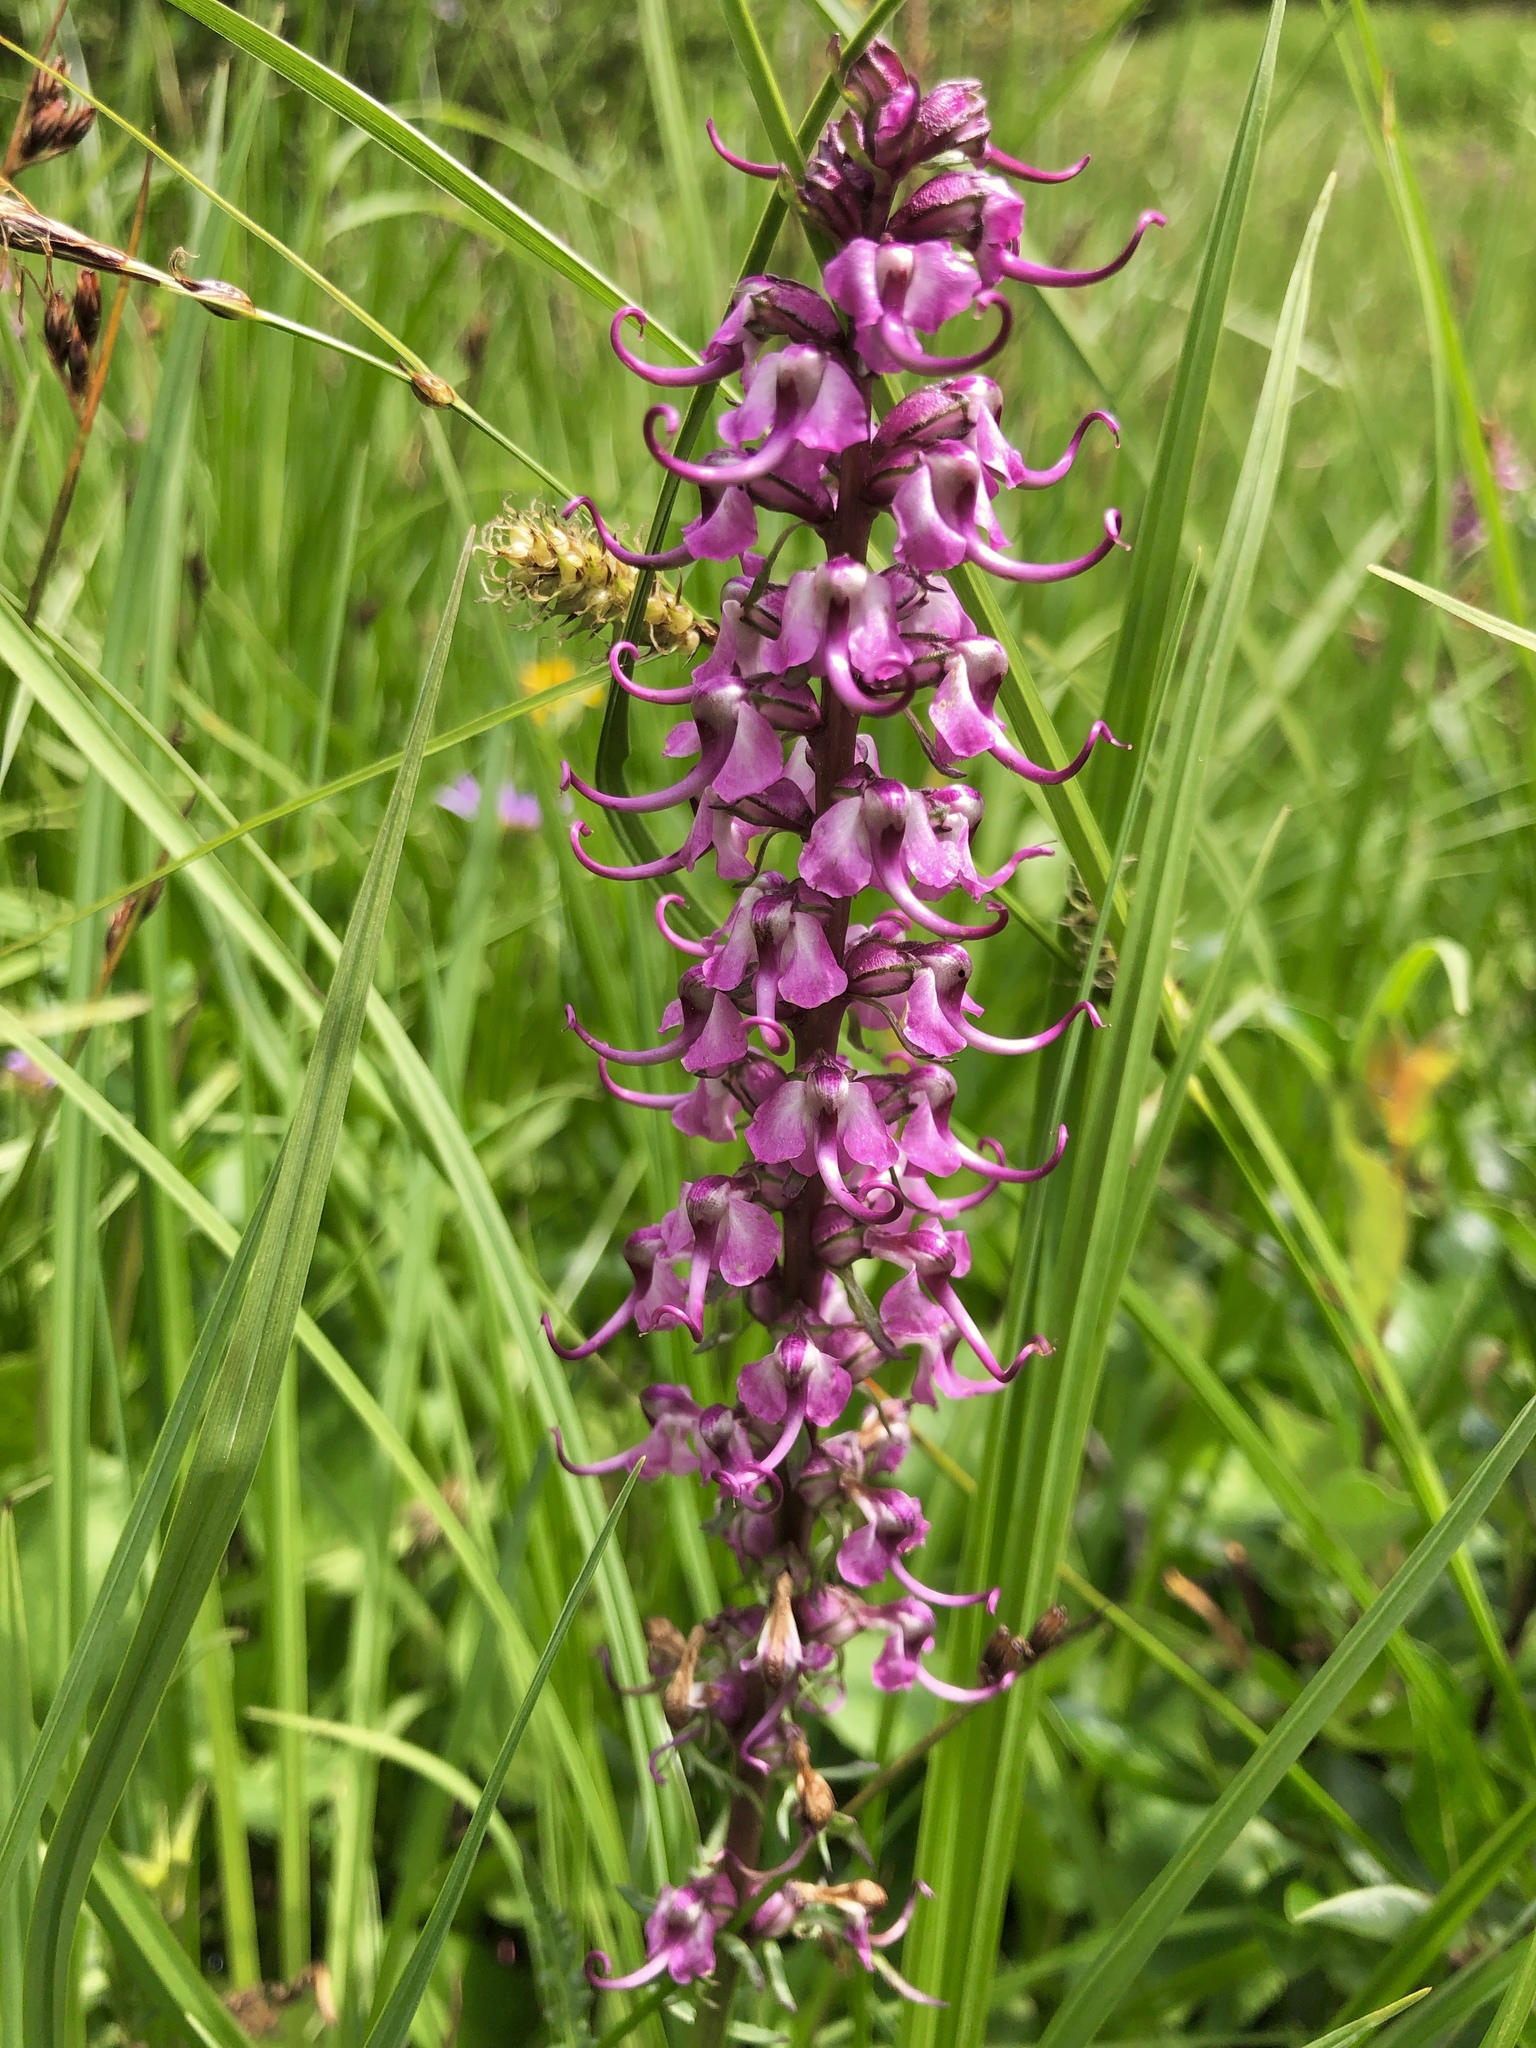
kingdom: Plantae
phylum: Tracheophyta
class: Magnoliopsida
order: Lamiales
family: Orobanchaceae
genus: Pedicularis
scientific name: Pedicularis groenlandica
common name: Elephant's-head
